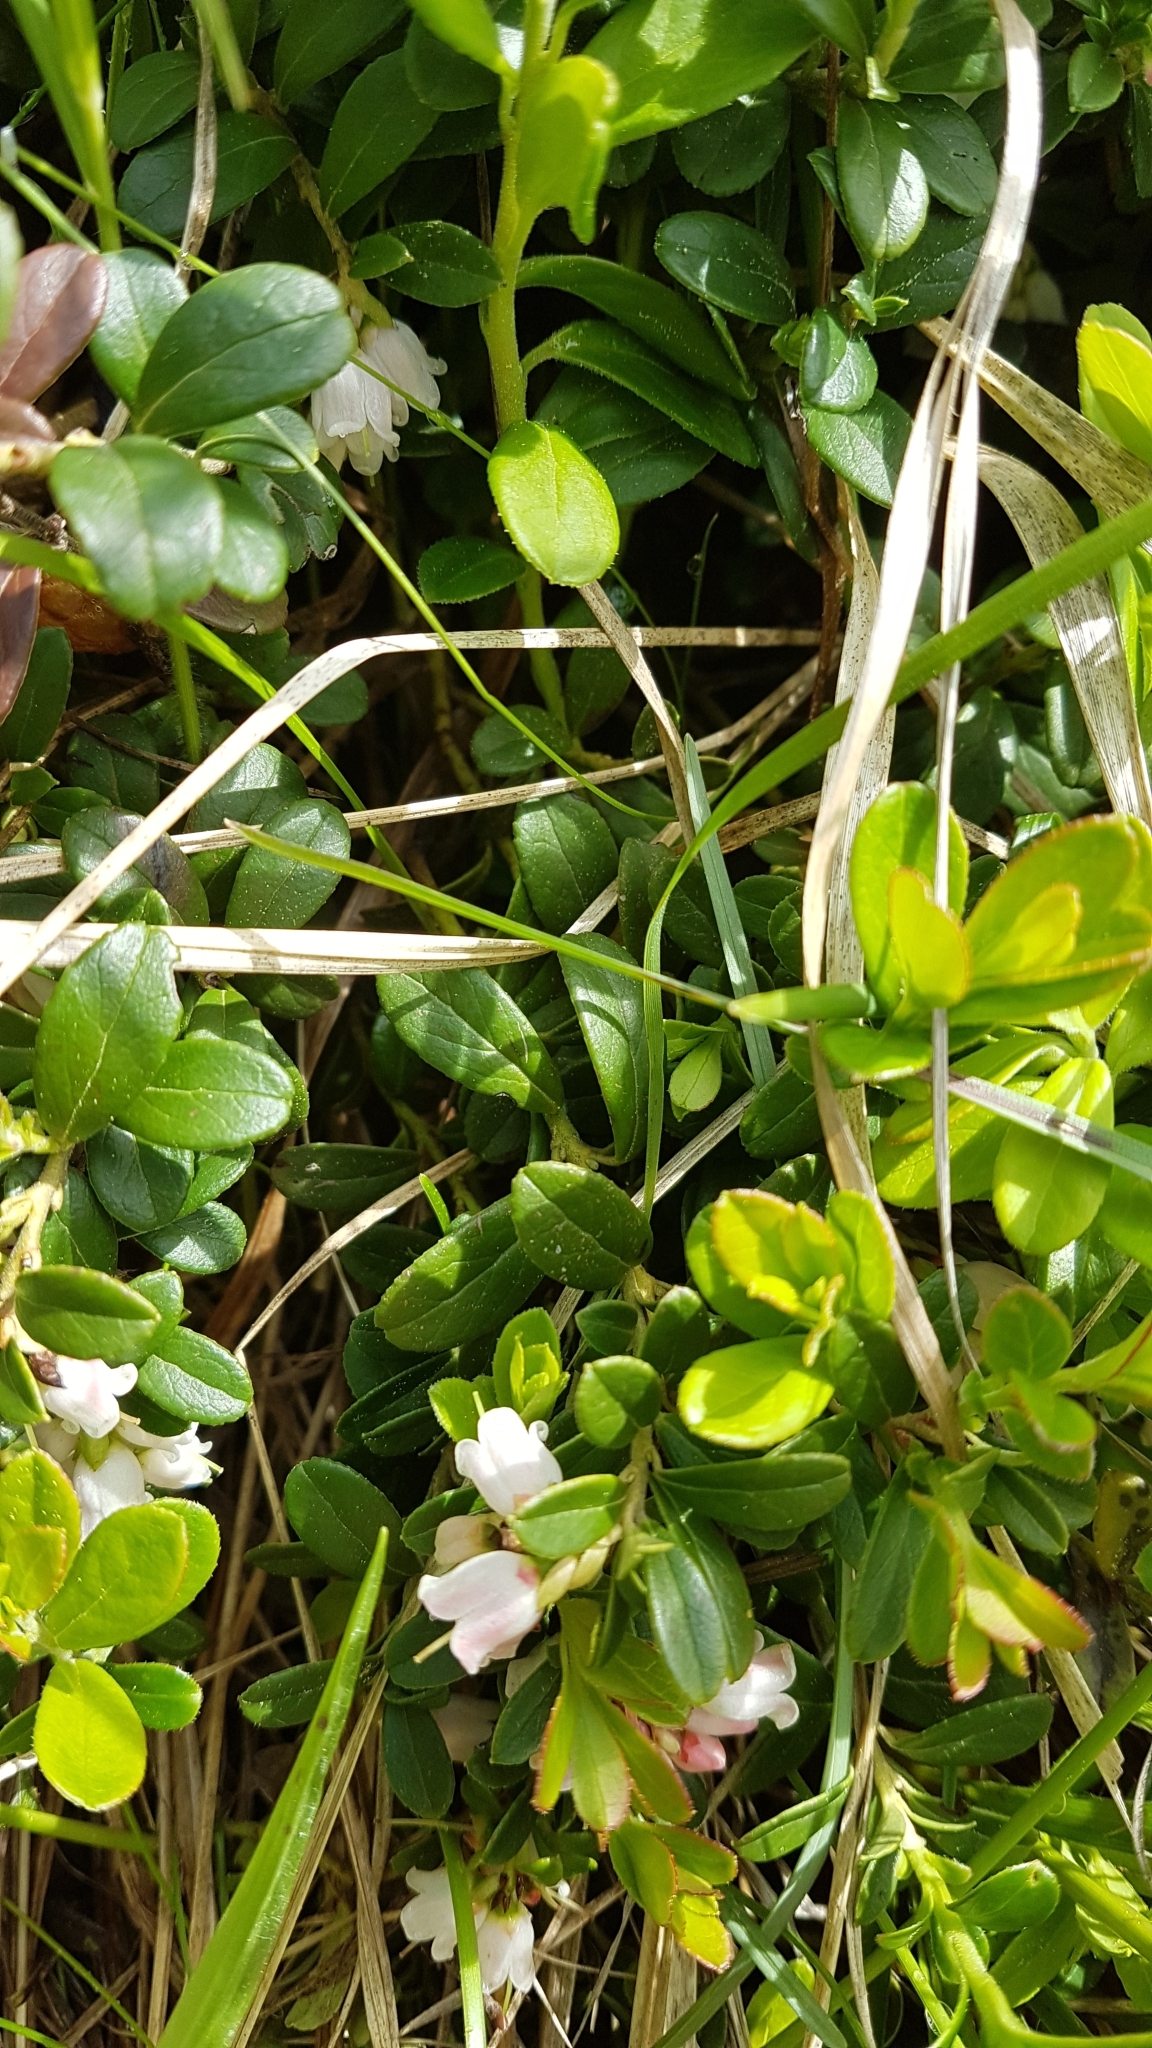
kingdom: Plantae
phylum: Tracheophyta
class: Magnoliopsida
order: Ericales
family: Ericaceae
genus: Vaccinium
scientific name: Vaccinium vitis-idaea
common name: Cowberry
